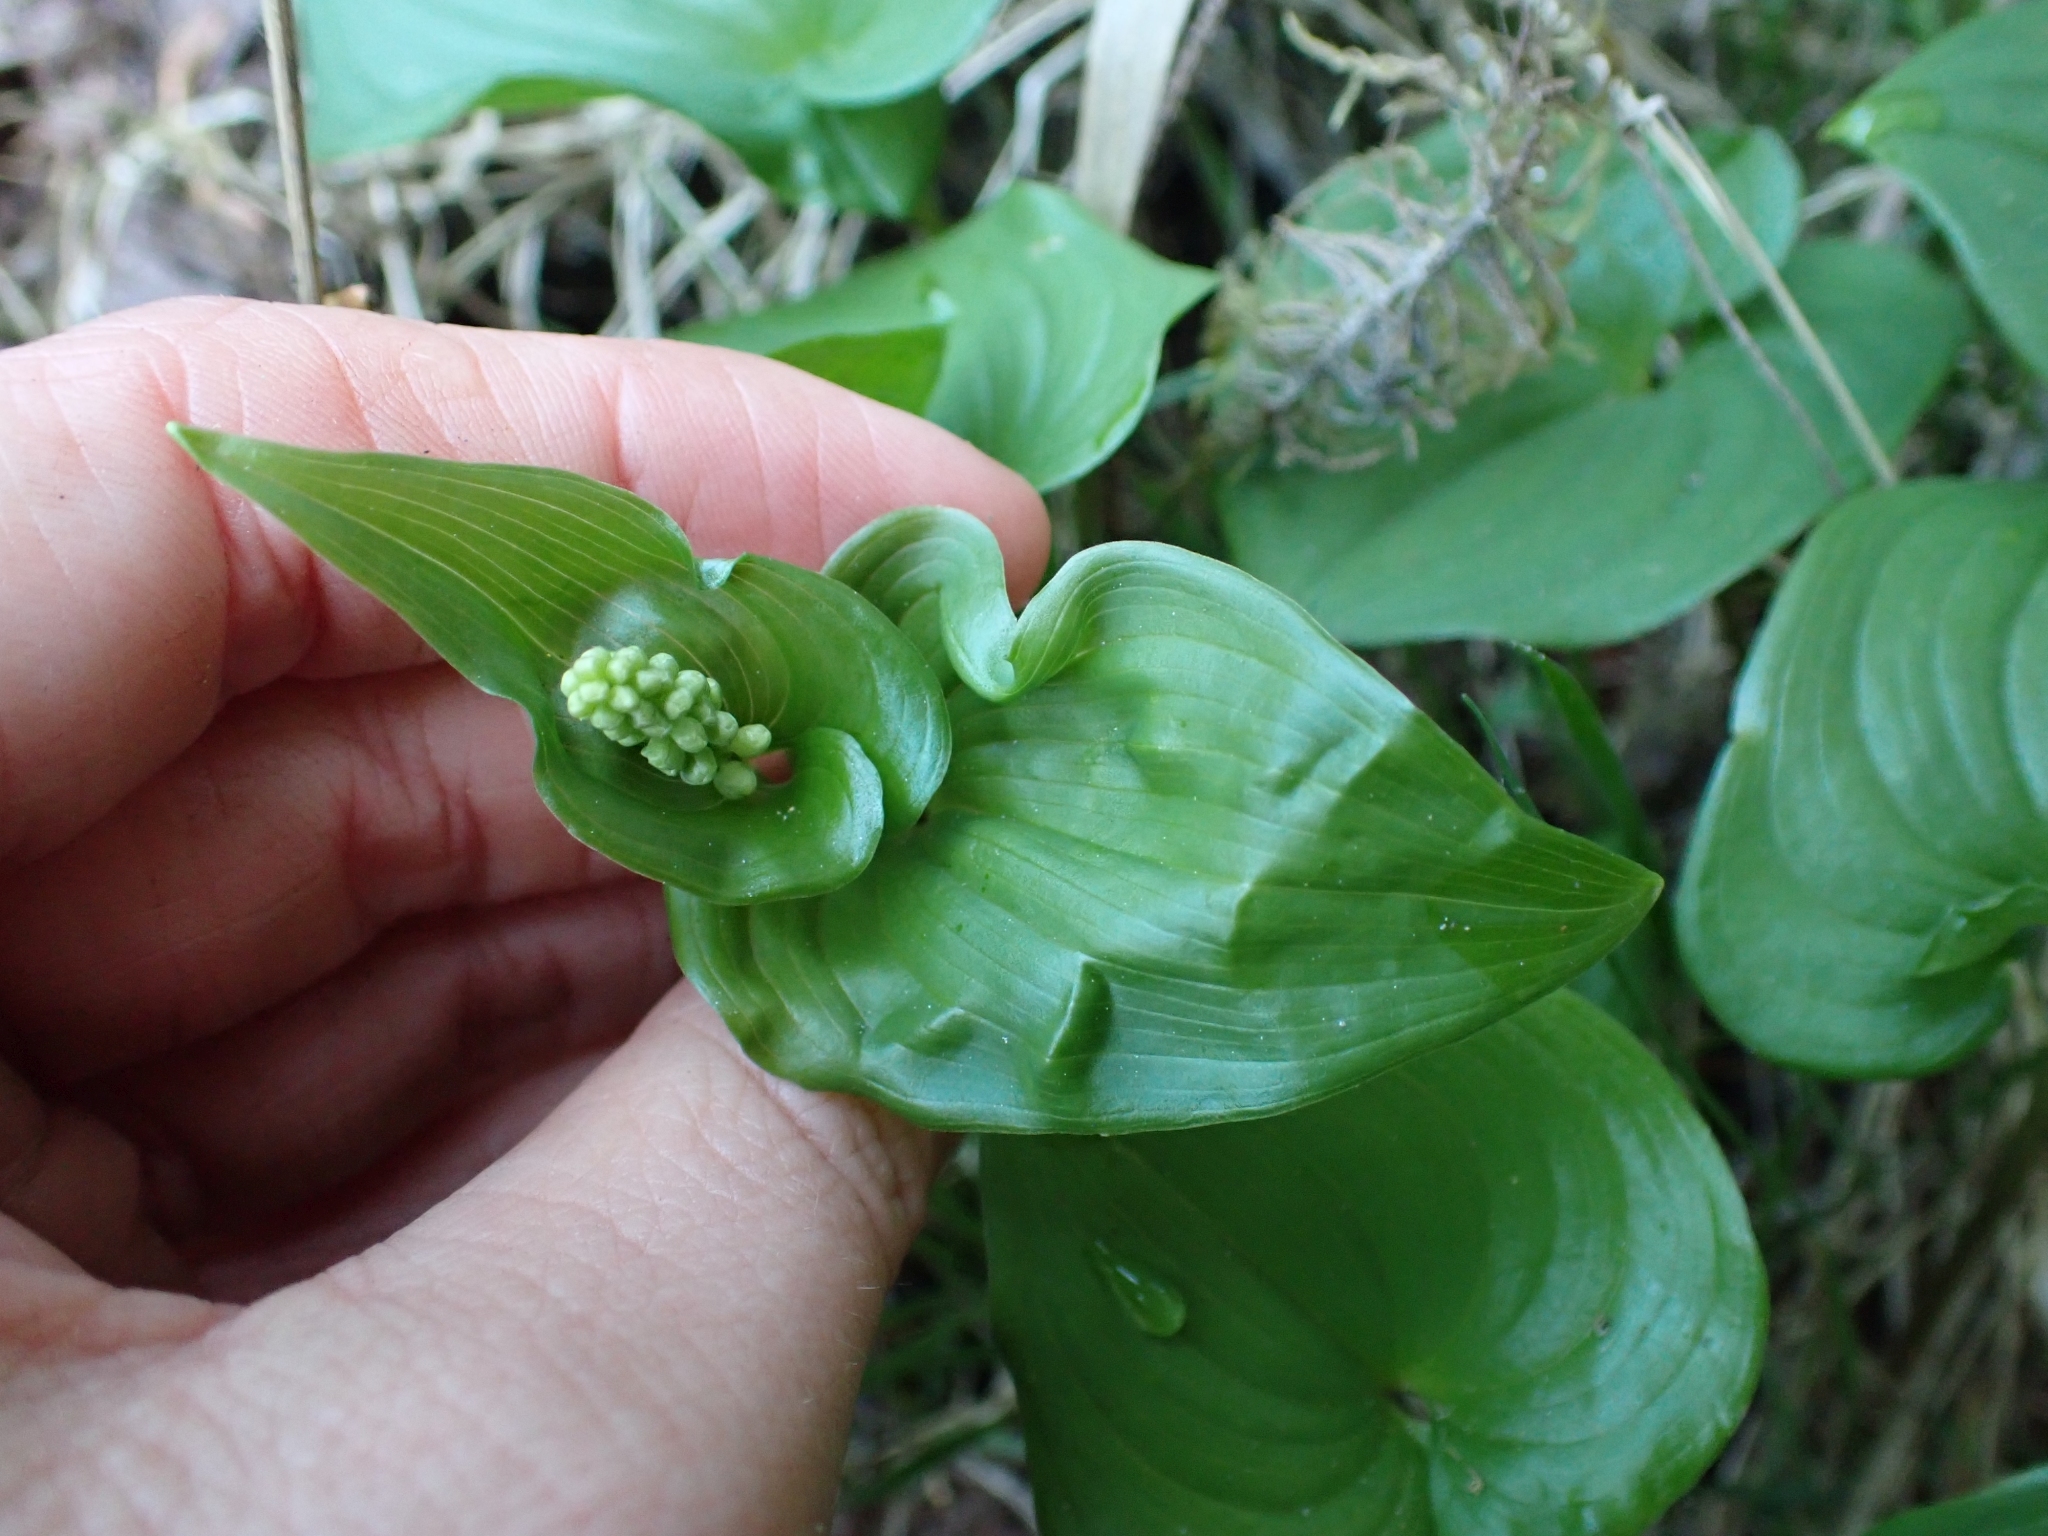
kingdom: Plantae
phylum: Tracheophyta
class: Liliopsida
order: Asparagales
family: Asparagaceae
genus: Maianthemum
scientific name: Maianthemum dilatatum
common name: False lily-of-the-valley
